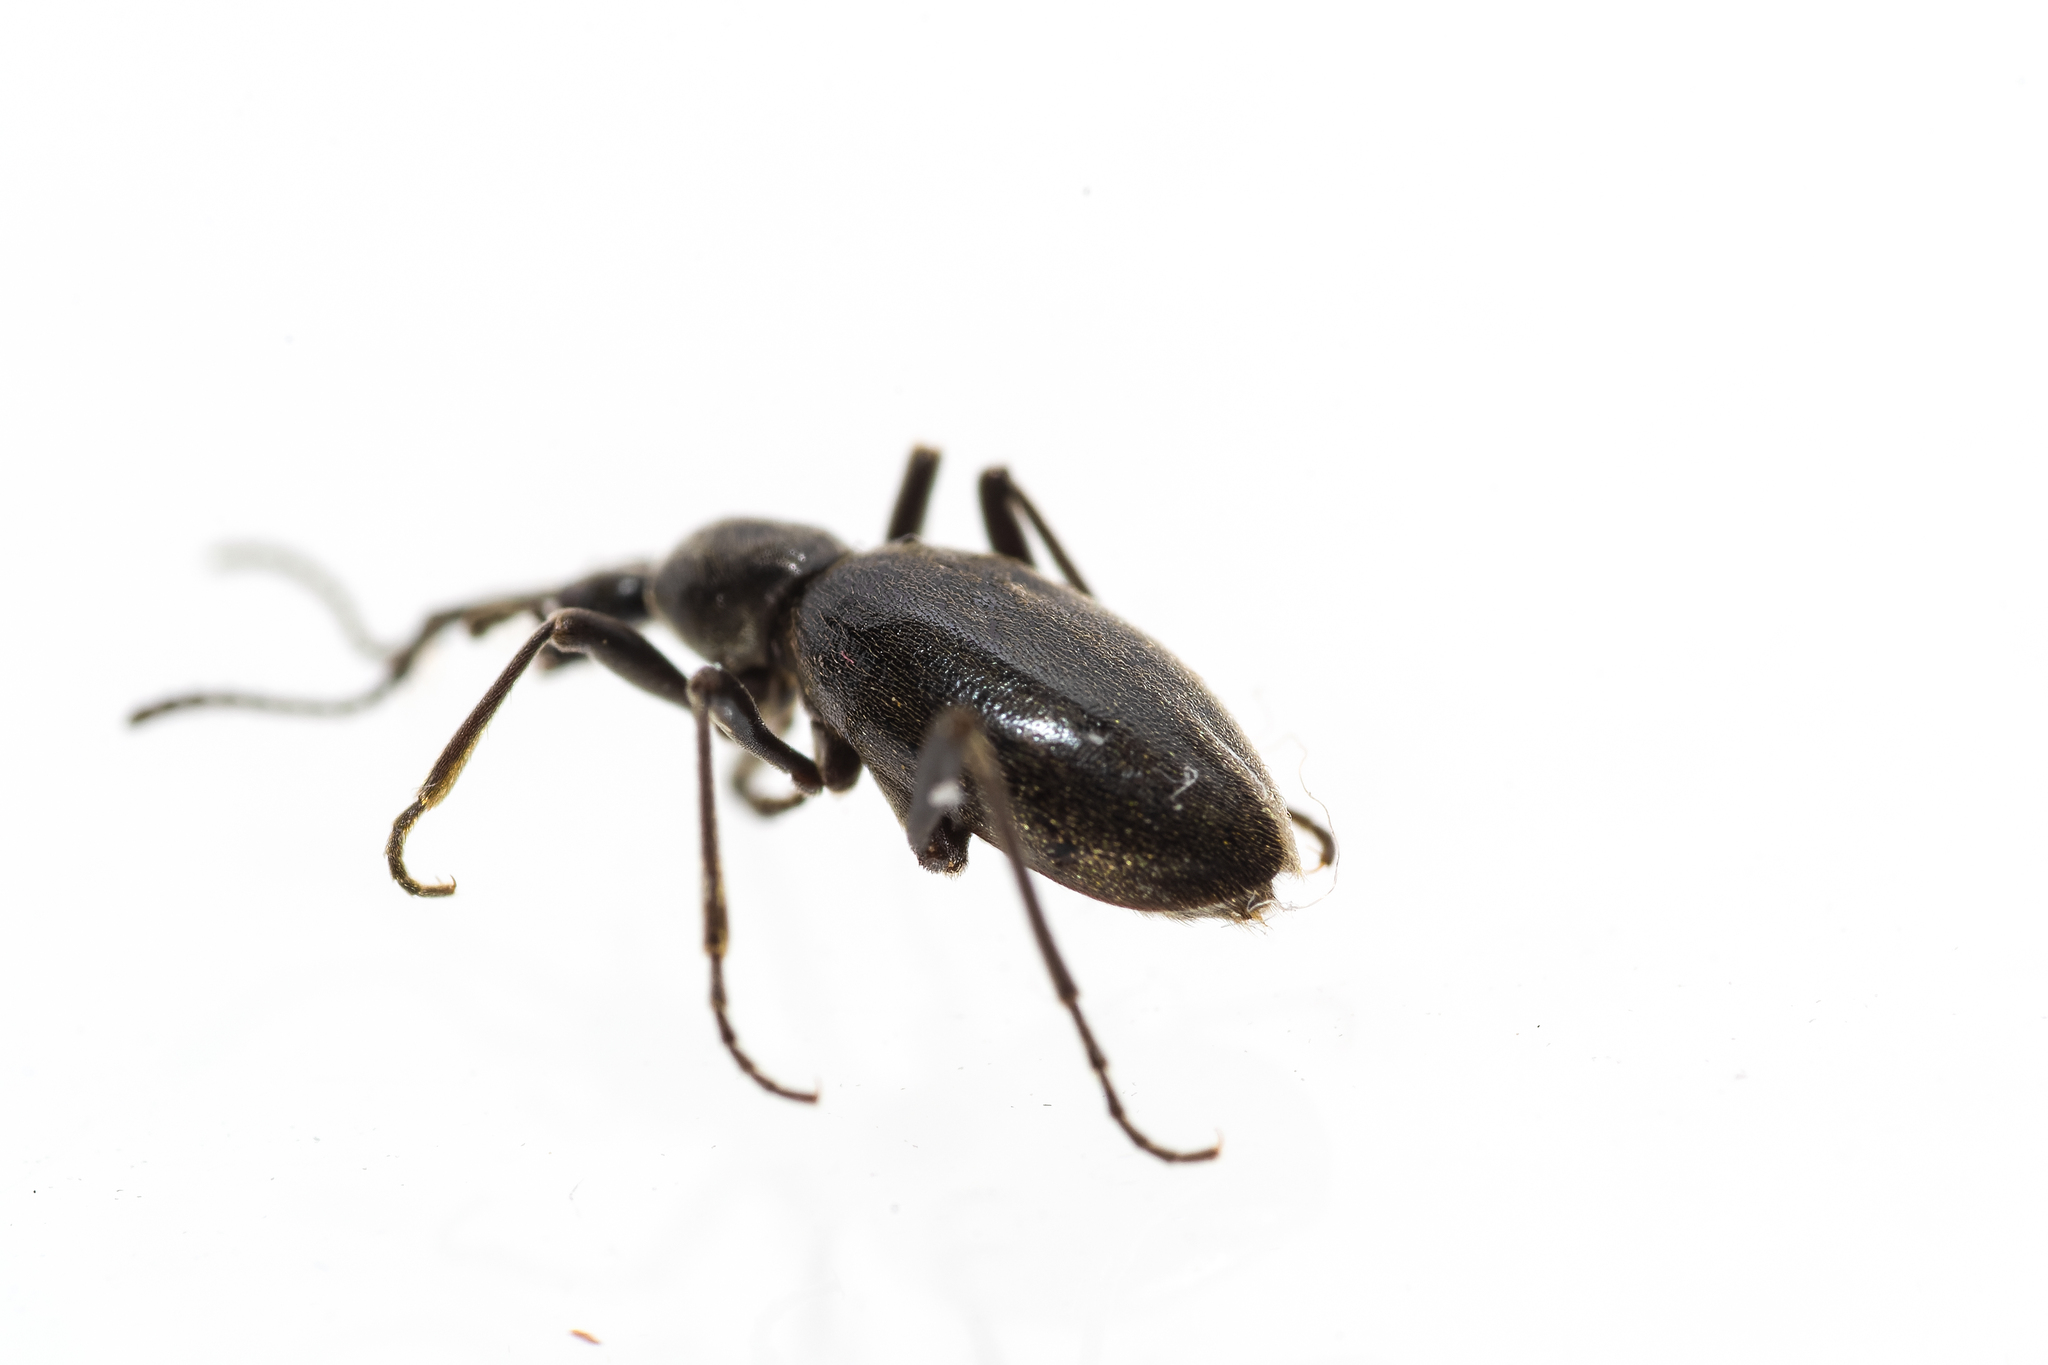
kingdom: Animalia
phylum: Arthropoda
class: Insecta
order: Coleoptera
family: Staphylinidae
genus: Palaeostigus
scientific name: Palaeostigus palpalis
